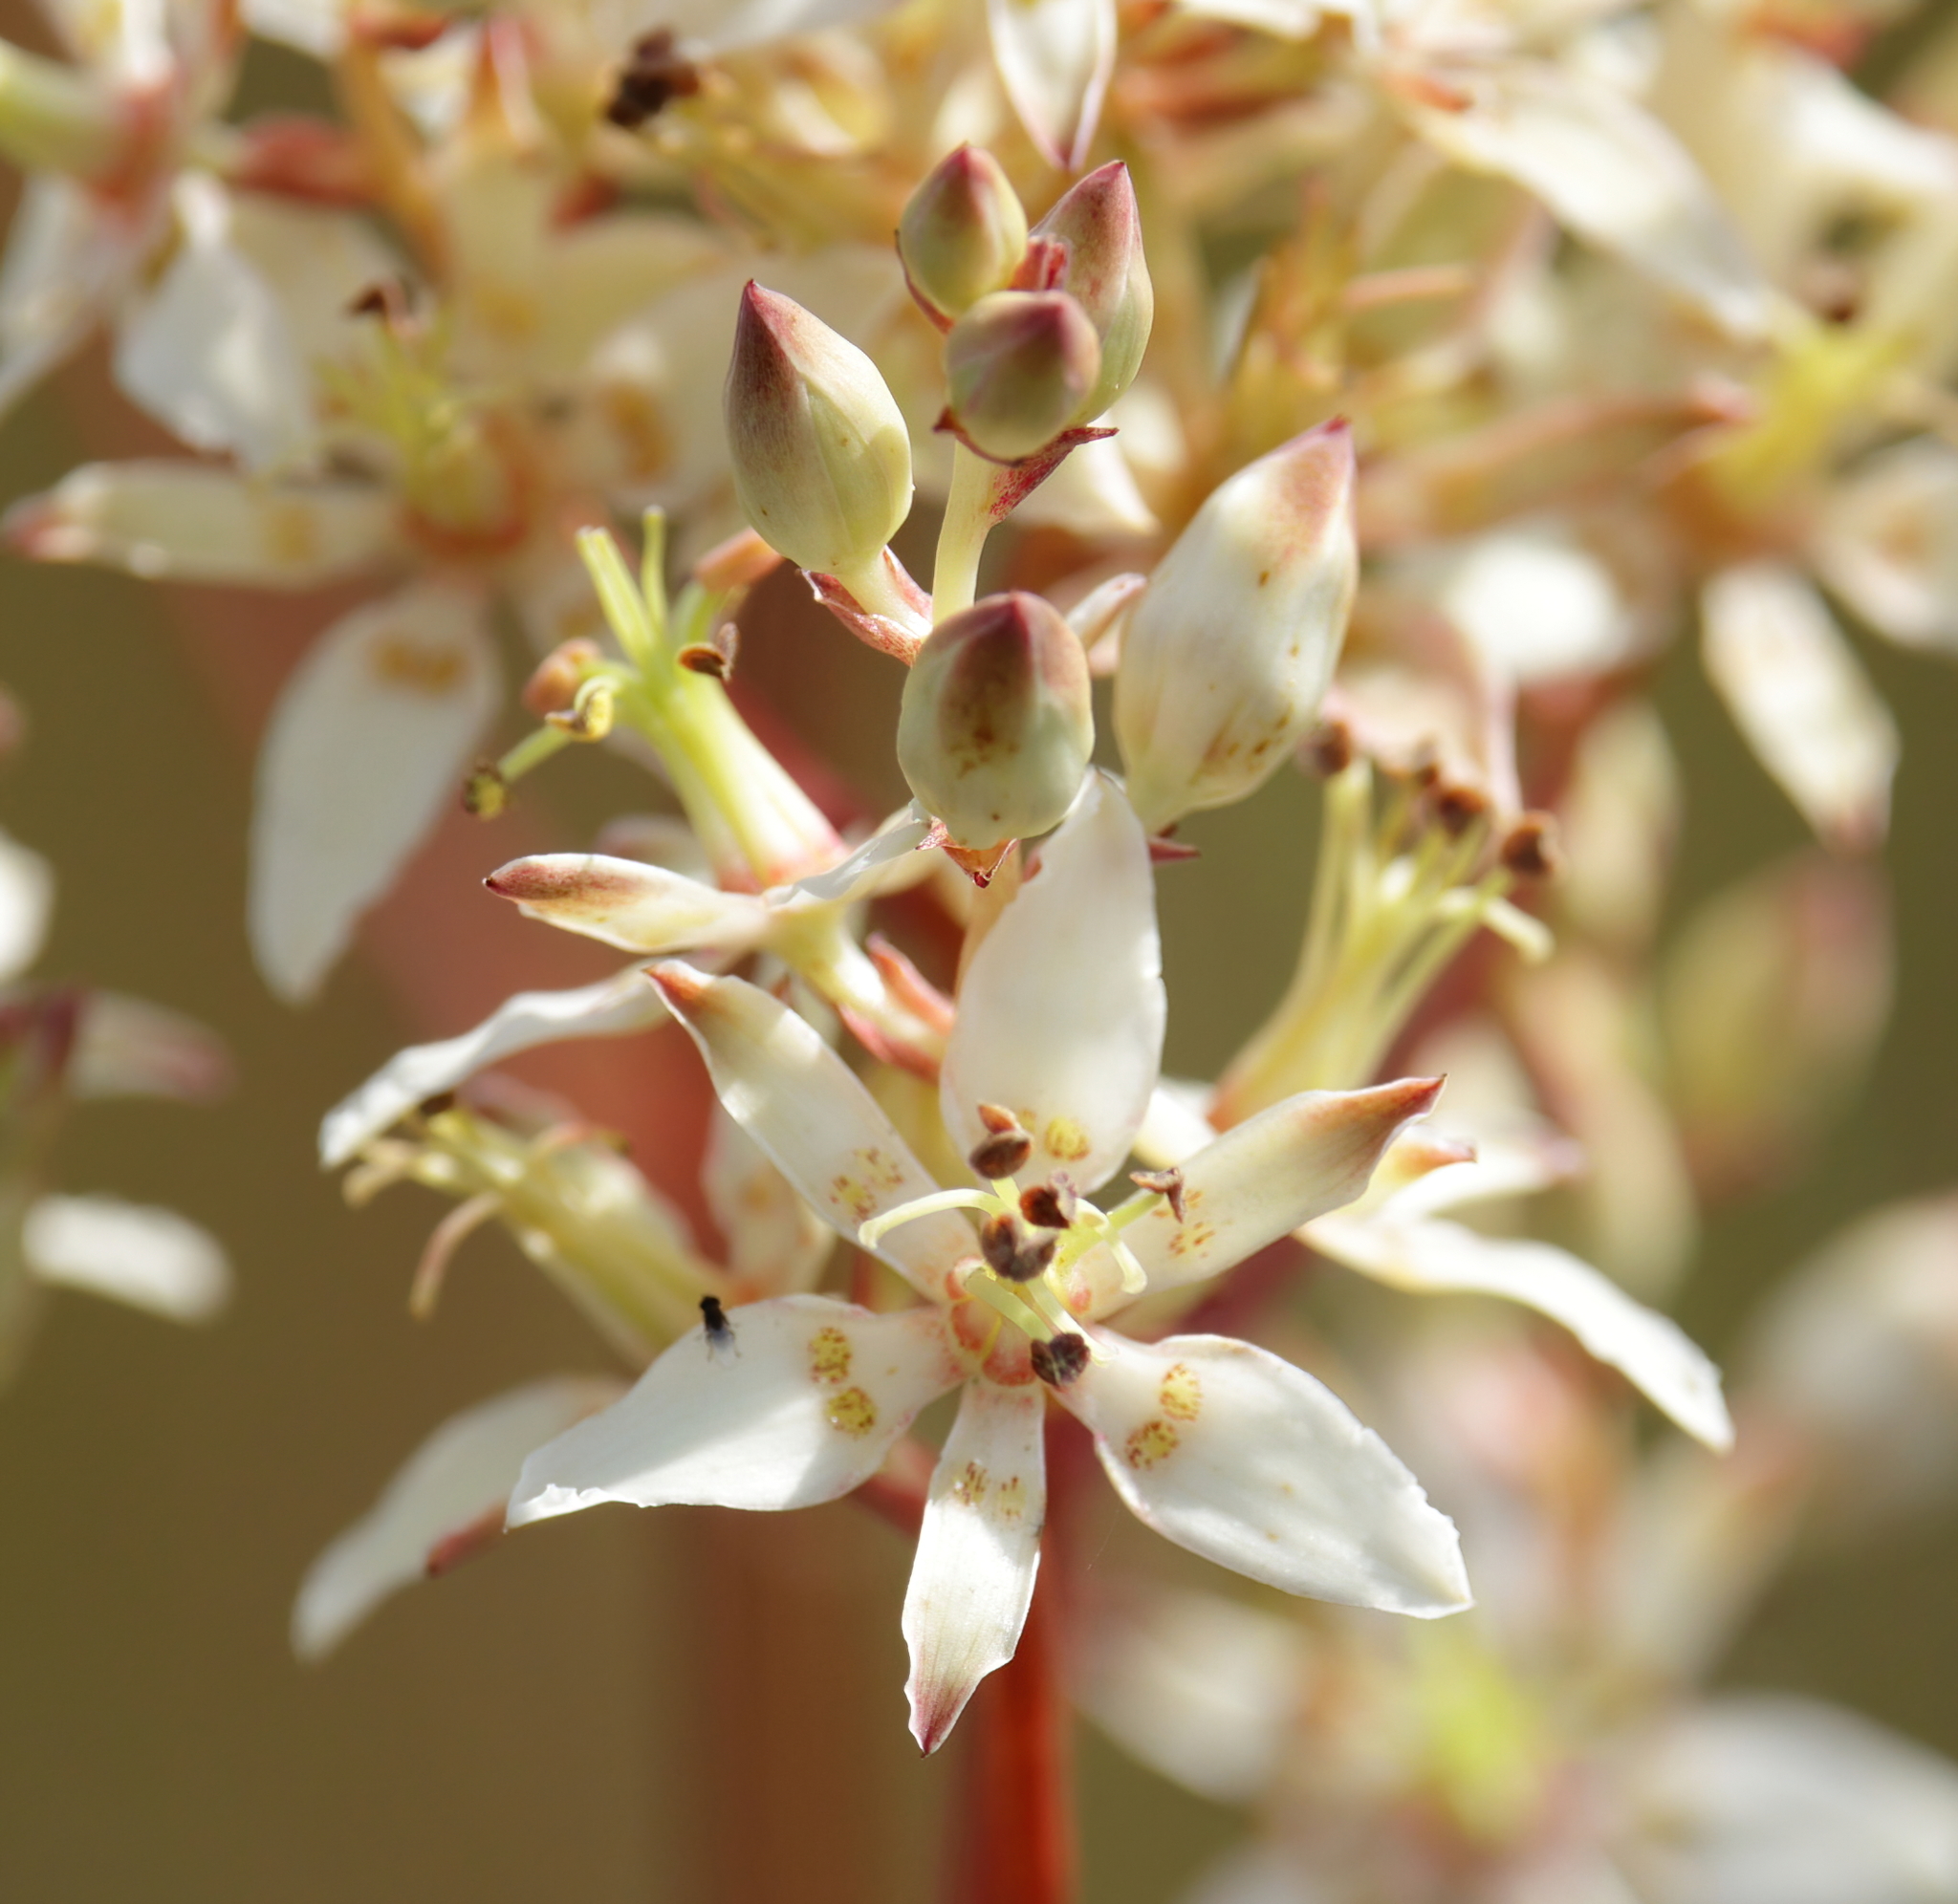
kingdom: Plantae
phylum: Tracheophyta
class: Liliopsida
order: Liliales
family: Melanthiaceae
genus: Zigadenus
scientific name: Zigadenus glaberrimus
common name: Sandbog death camas
